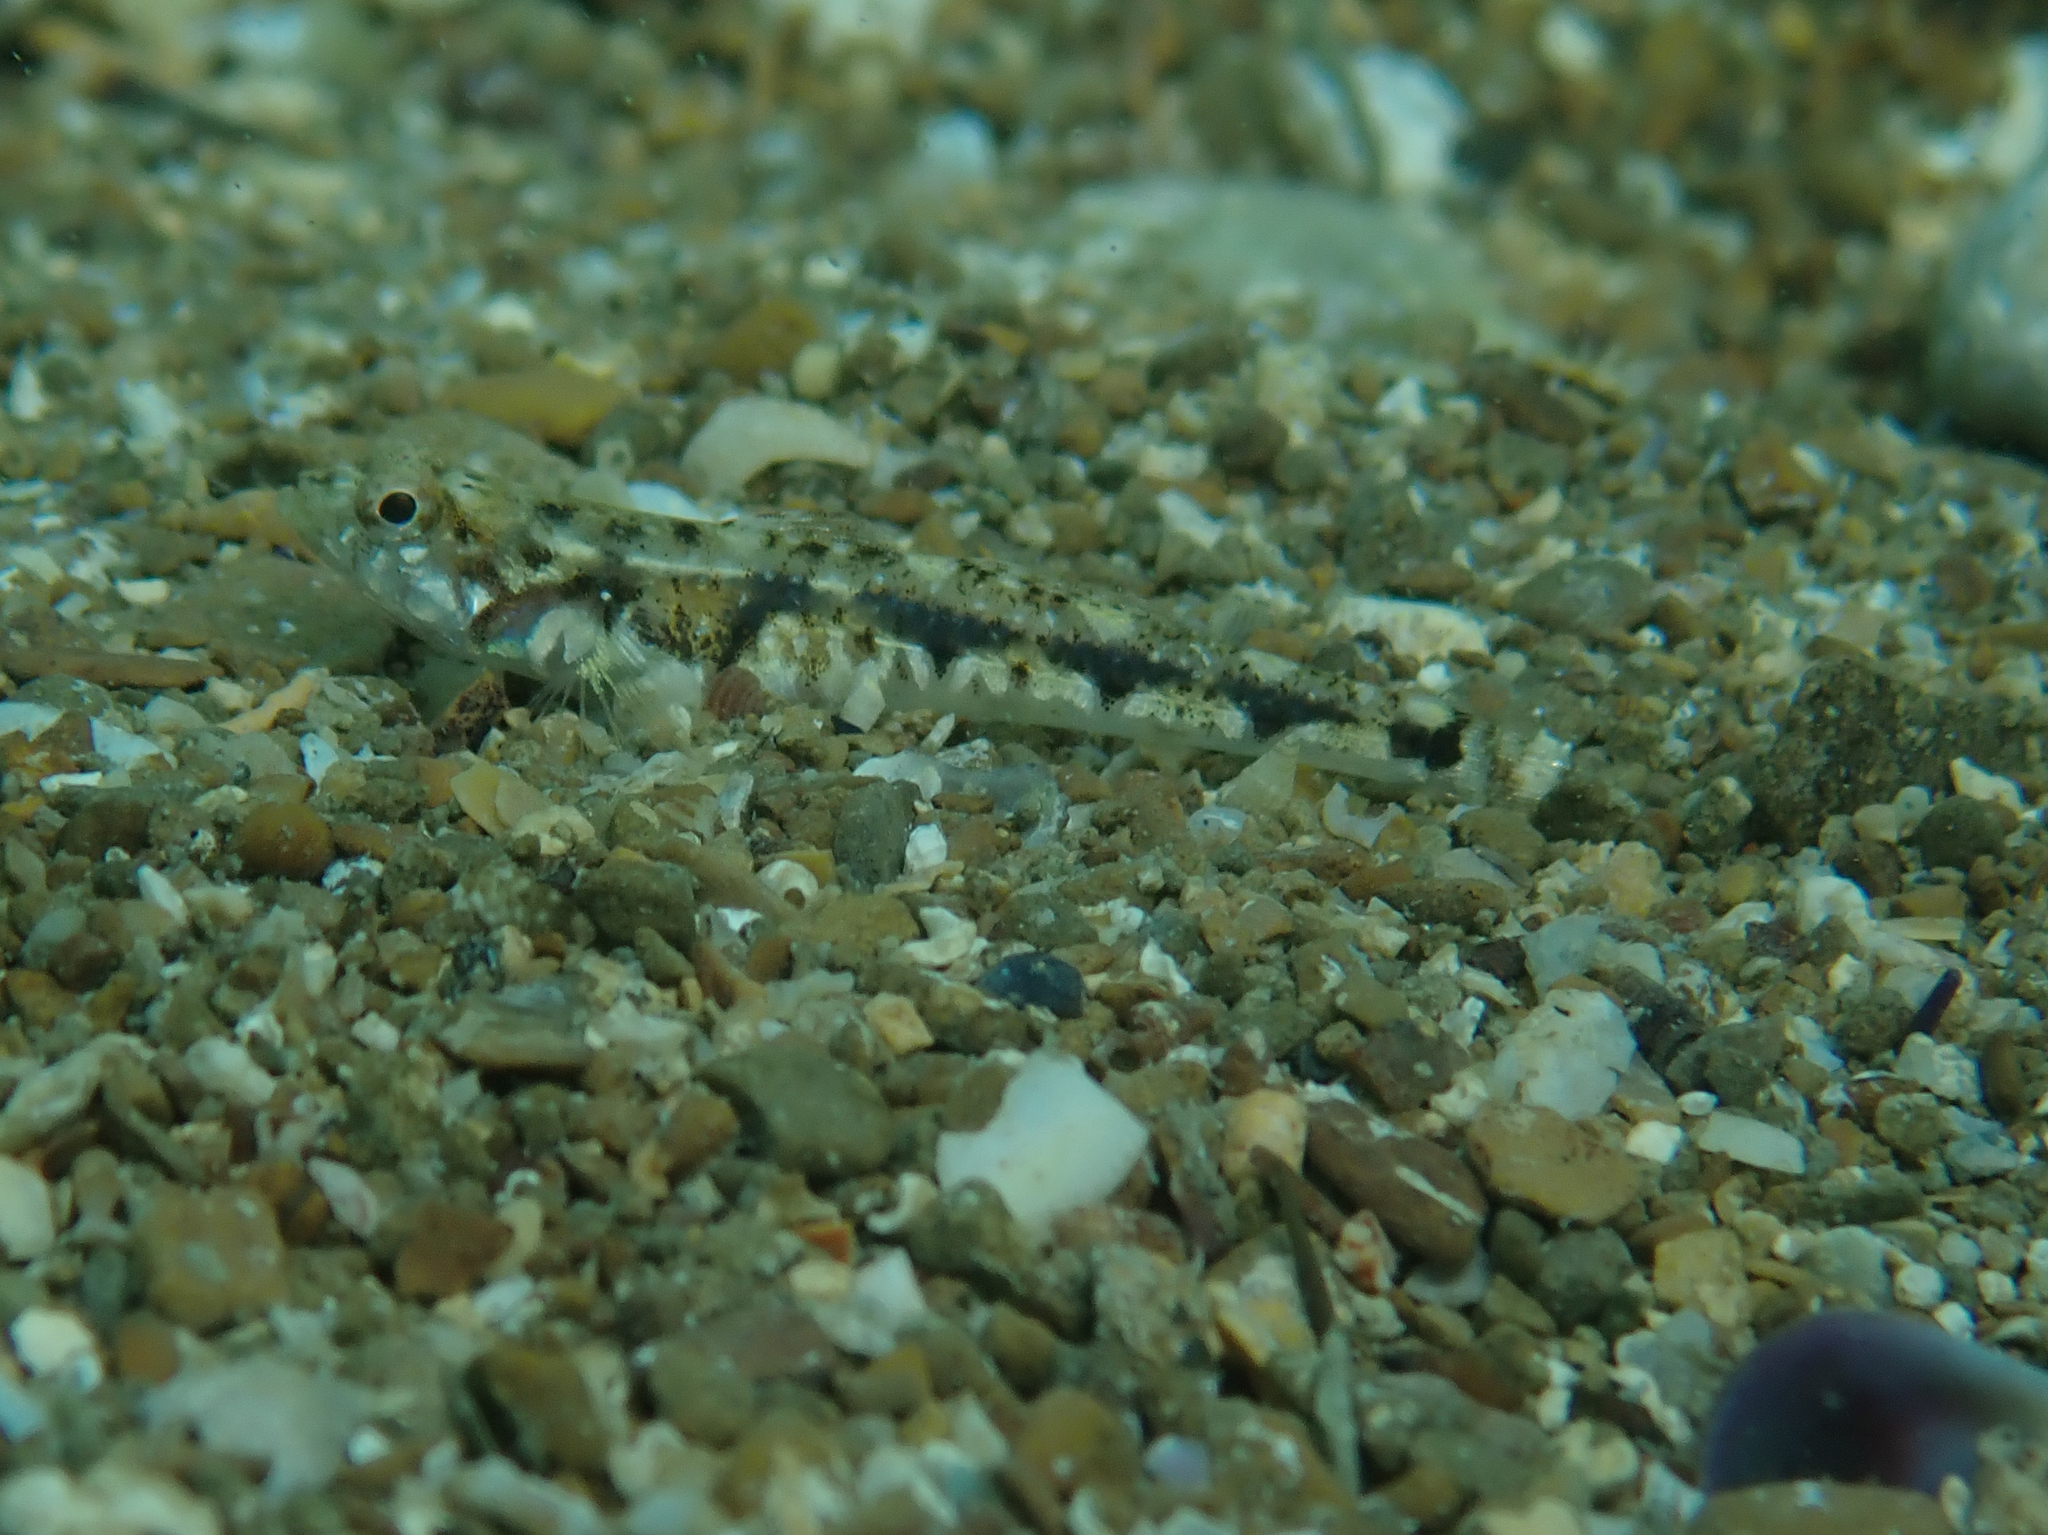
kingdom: Animalia
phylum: Chordata
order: Perciformes
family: Gobiidae
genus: Pomatoschistus
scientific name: Pomatoschistus bathi
